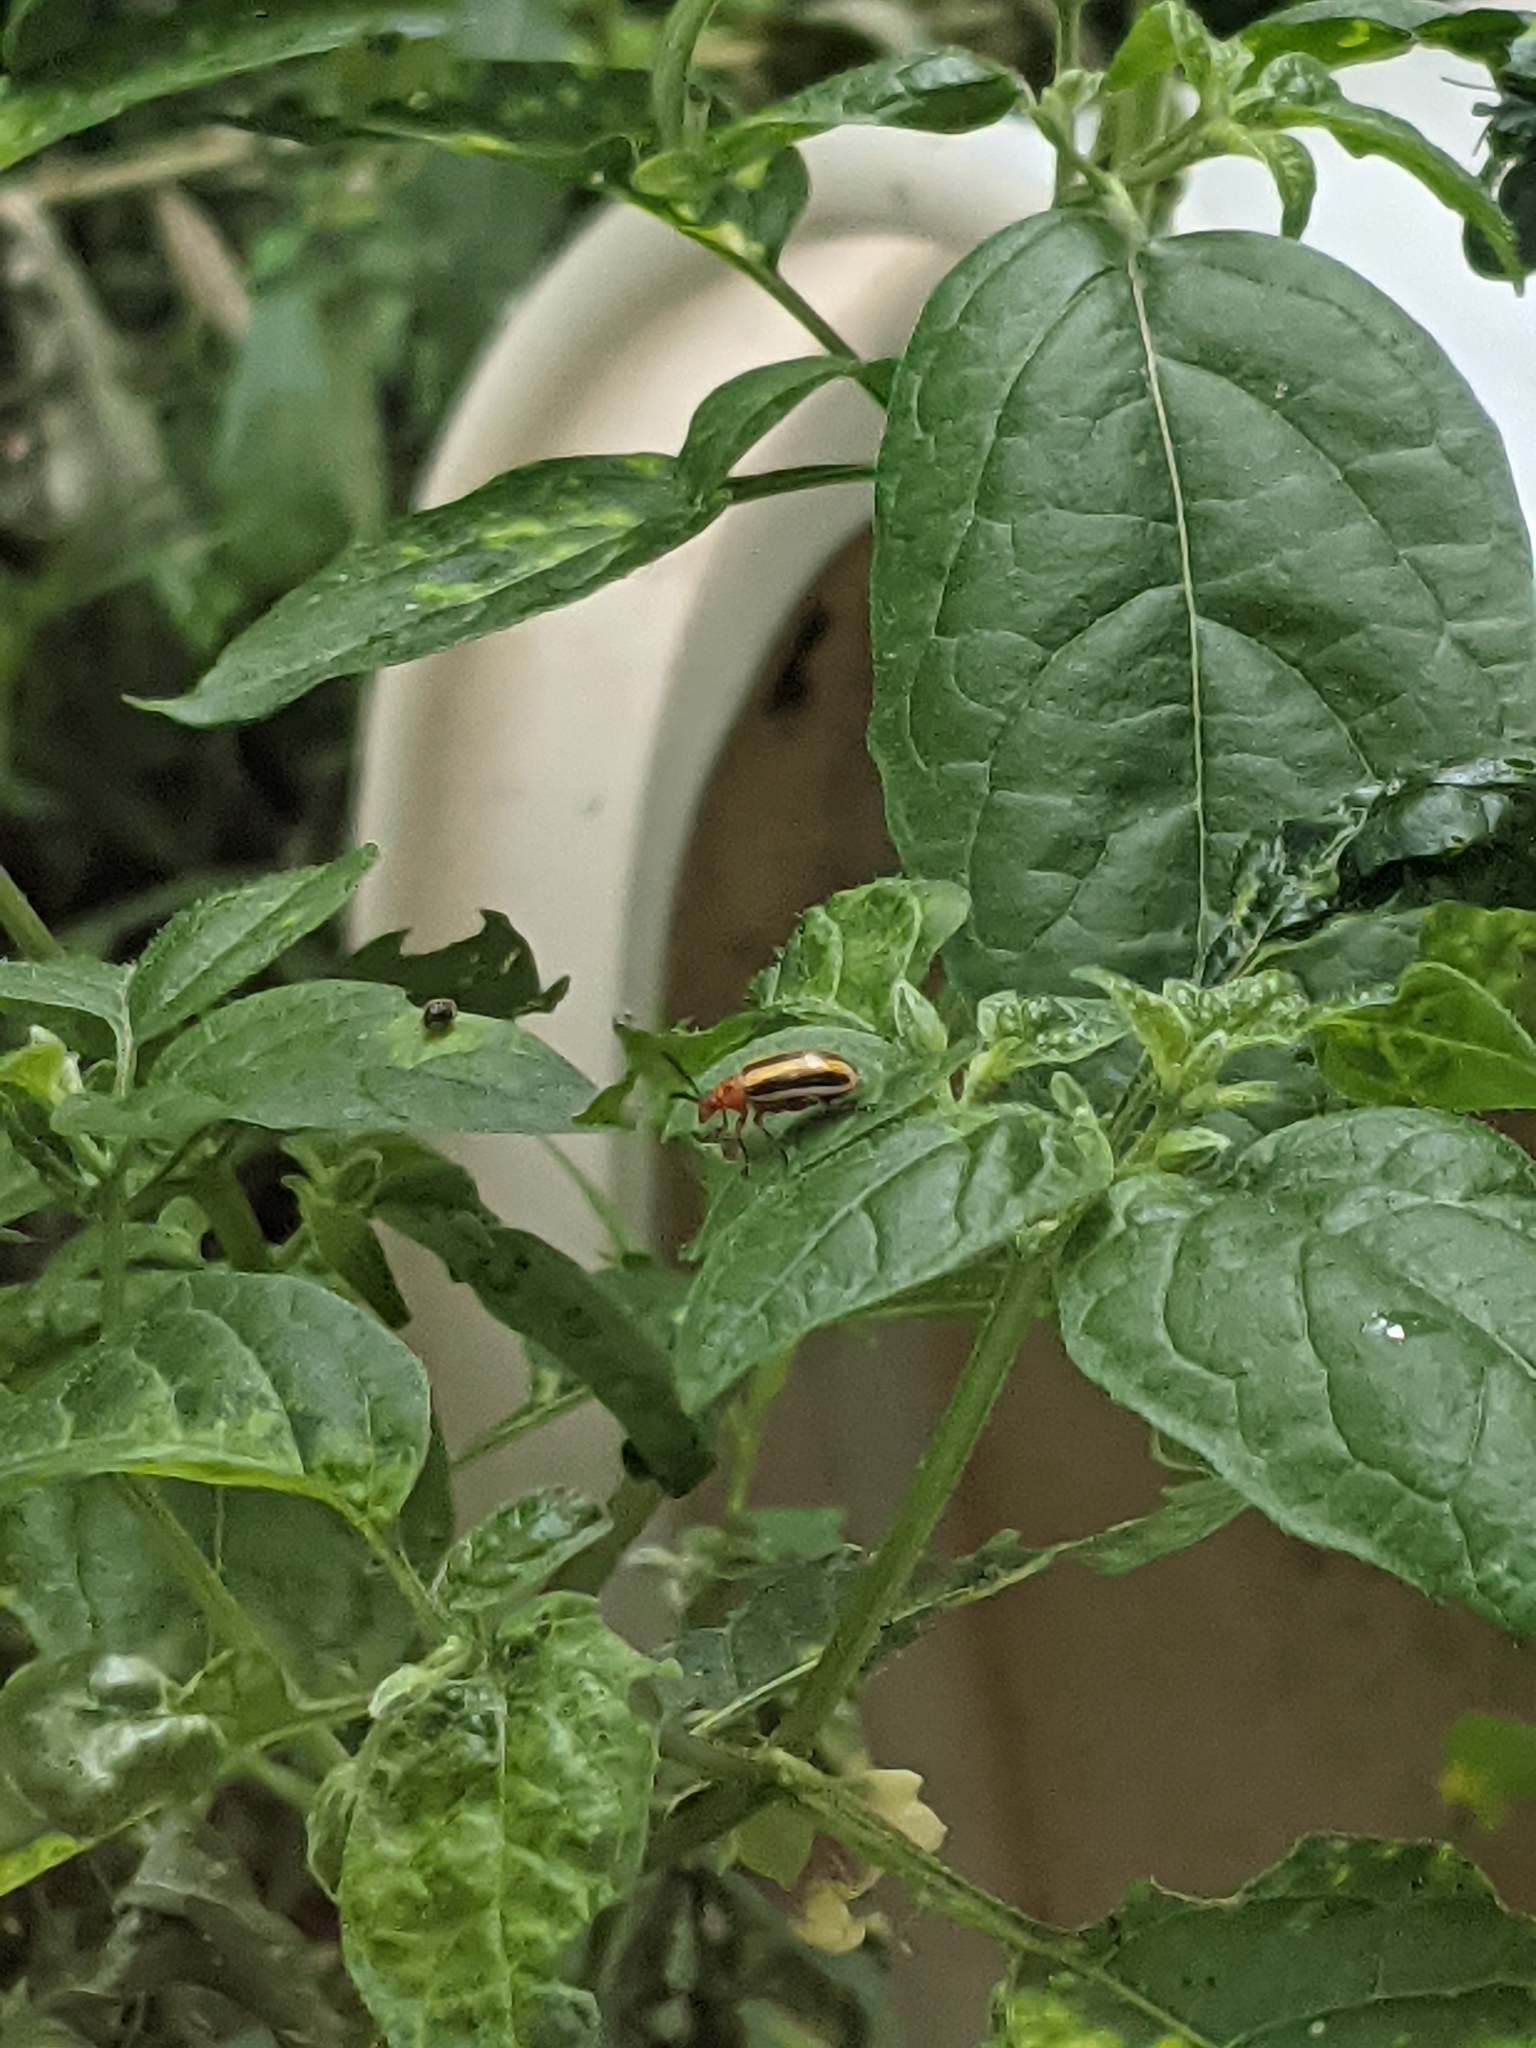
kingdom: Animalia
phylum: Arthropoda
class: Insecta
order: Coleoptera
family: Chrysomelidae
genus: Lema
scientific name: Lema daturaphila
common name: Leaf beetle
